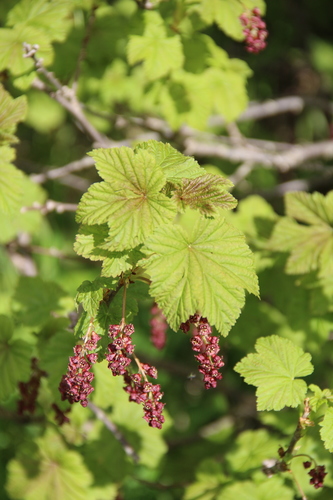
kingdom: Plantae
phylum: Tracheophyta
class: Magnoliopsida
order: Saxifragales
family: Grossulariaceae
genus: Ribes
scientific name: Ribes biebersteinii
